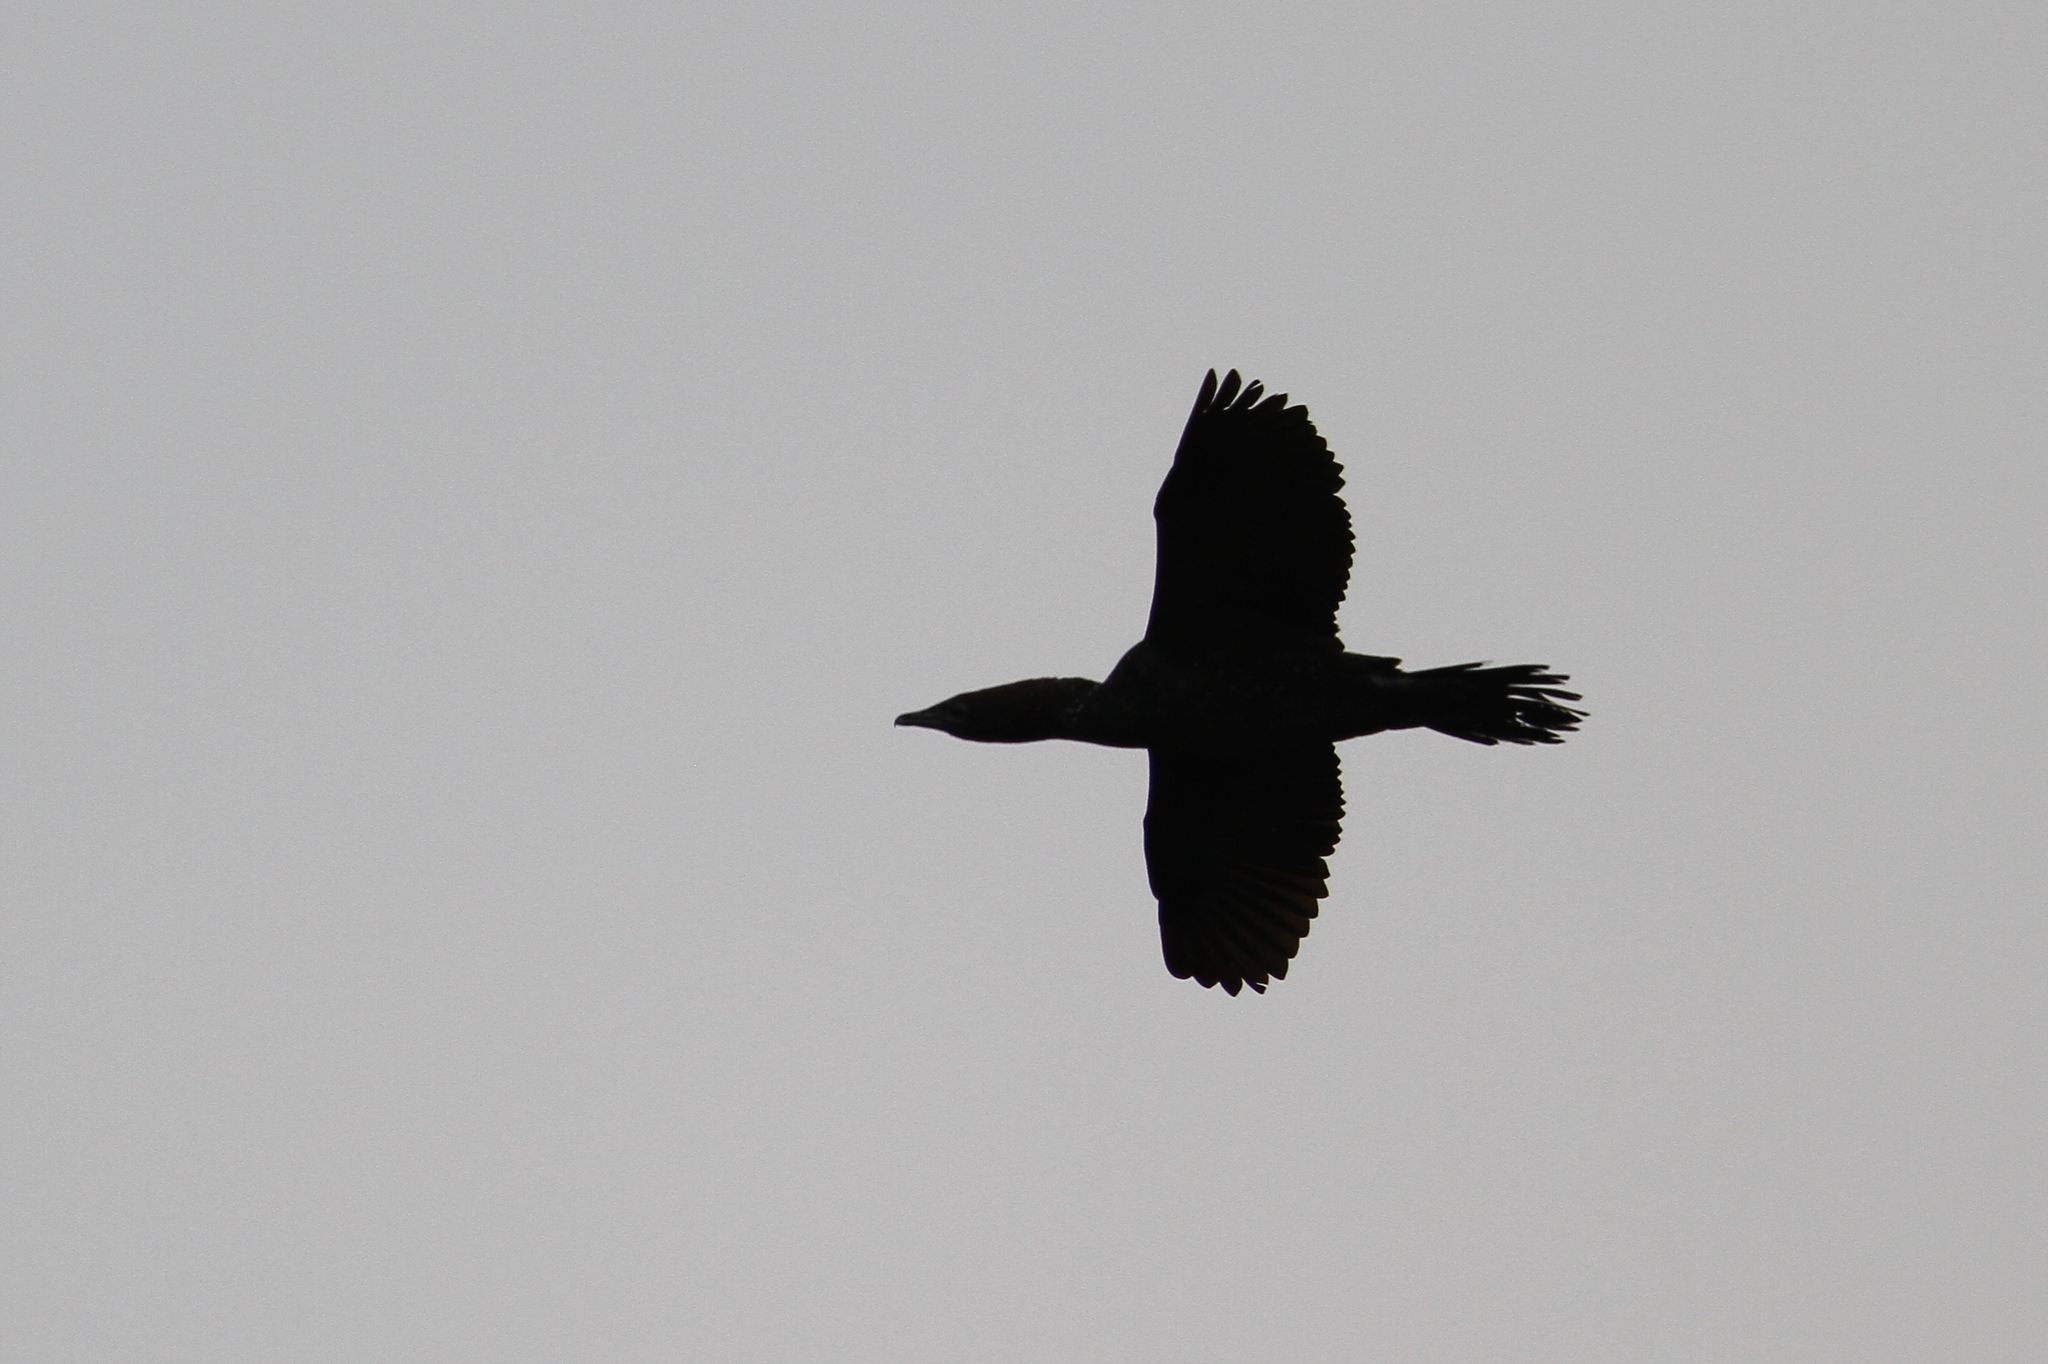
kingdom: Animalia
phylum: Chordata
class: Aves
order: Suliformes
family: Phalacrocoracidae
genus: Microcarbo
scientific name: Microcarbo pygmaeus
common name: Pygmy cormorant
